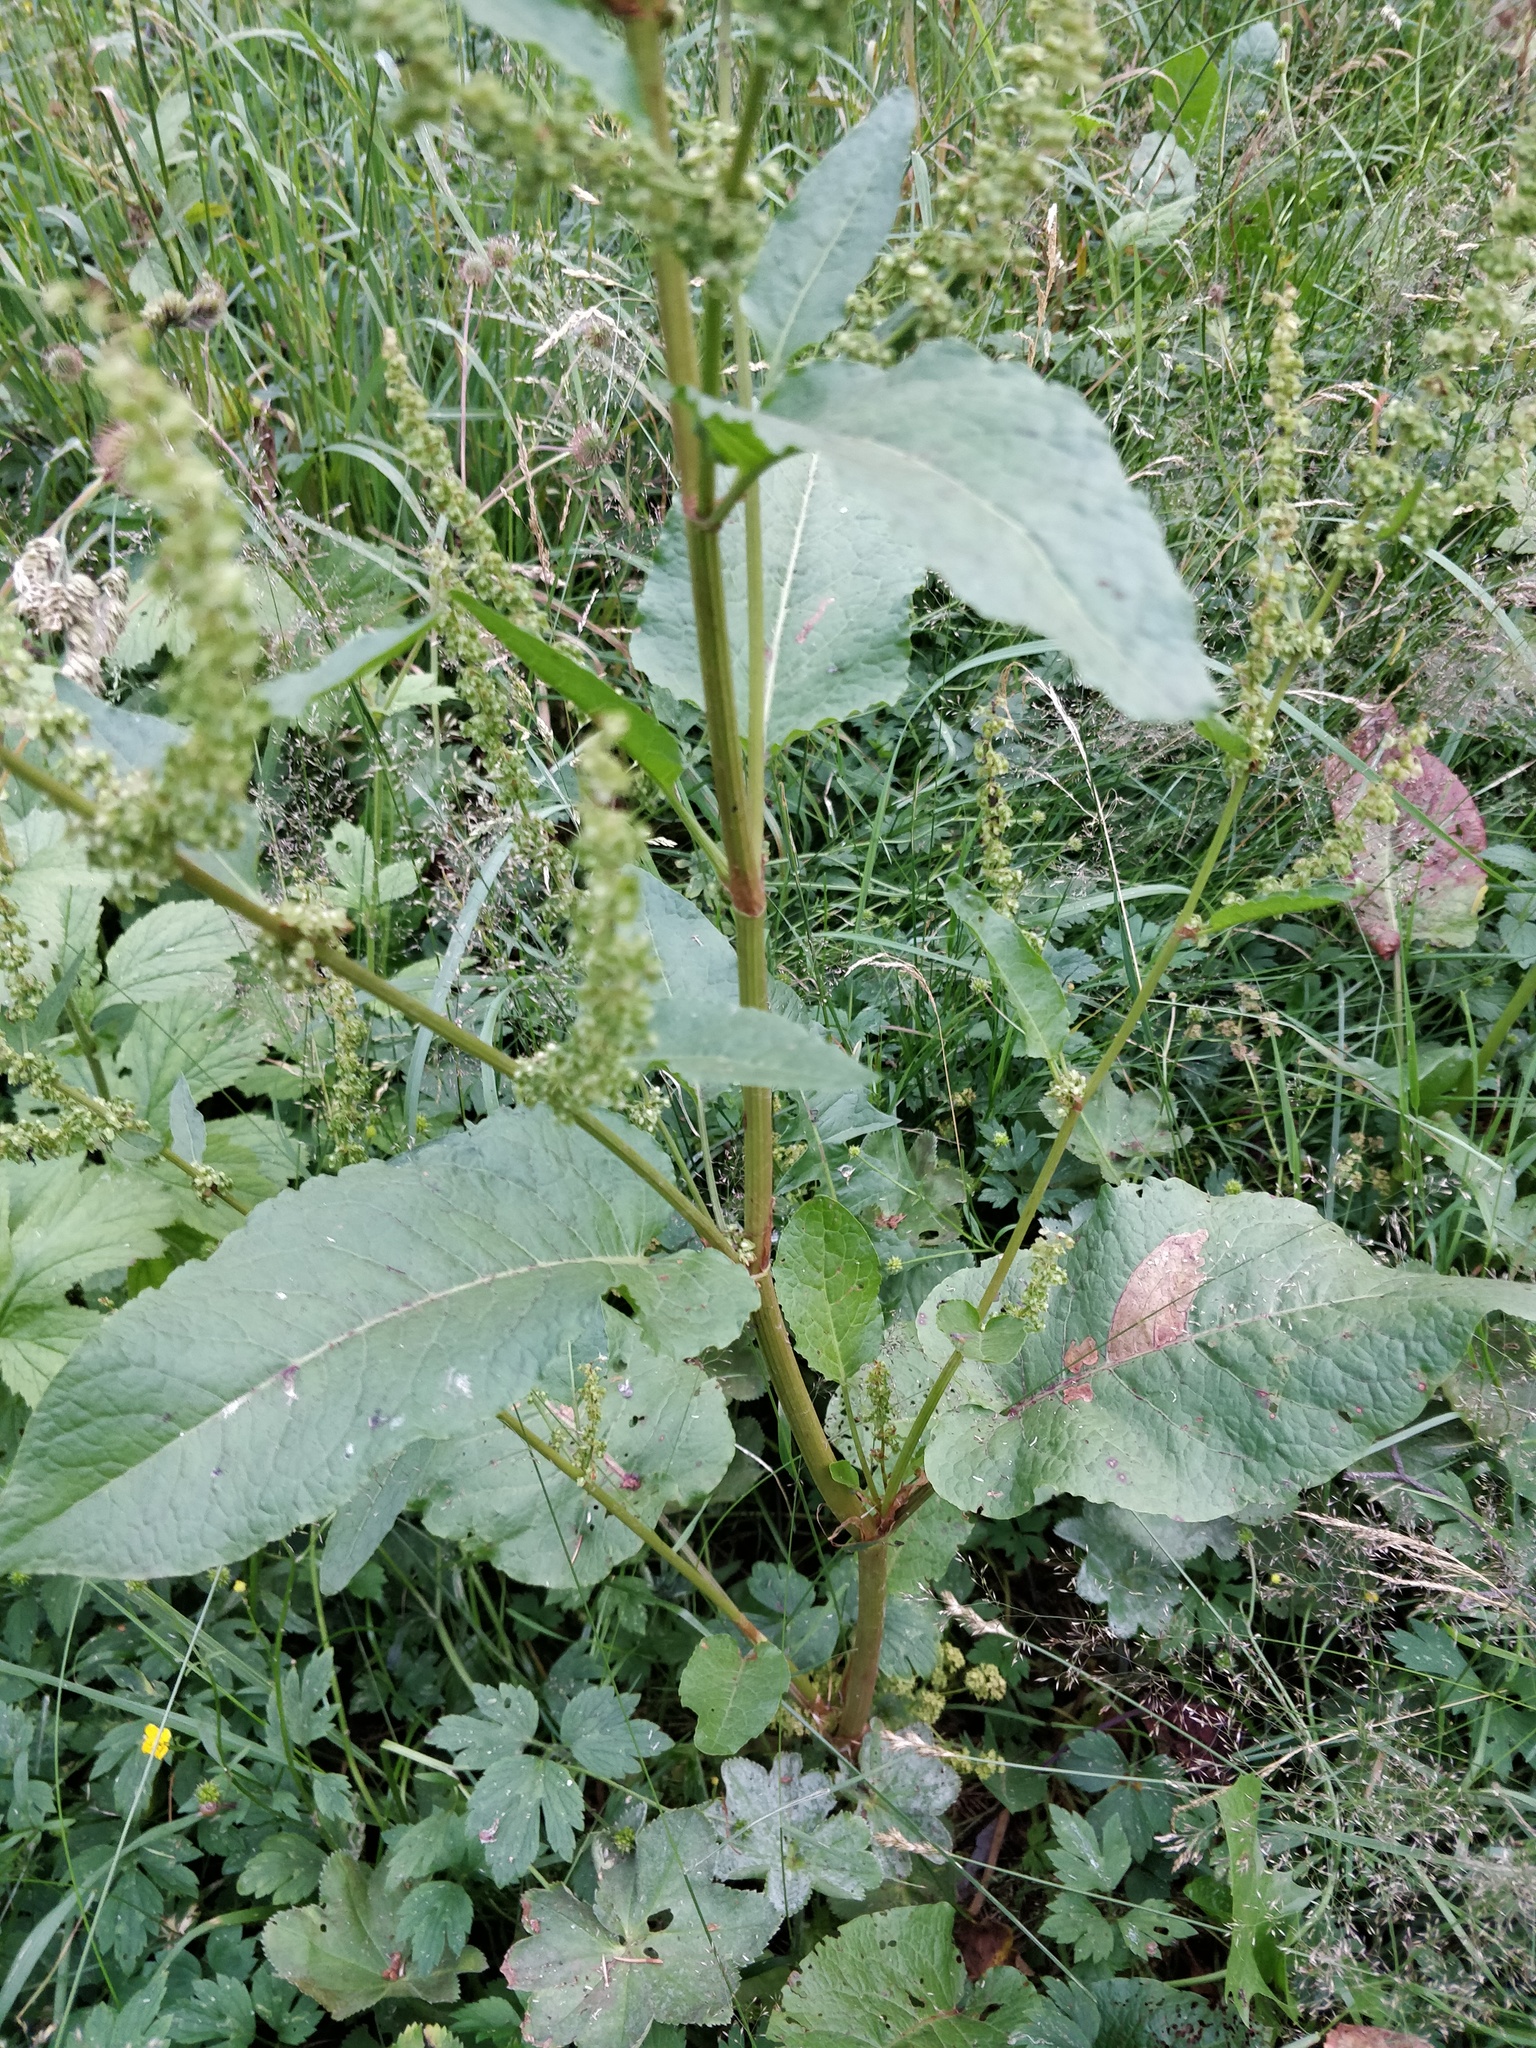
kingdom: Plantae
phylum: Tracheophyta
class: Magnoliopsida
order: Caryophyllales
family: Polygonaceae
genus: Rumex
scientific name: Rumex obtusifolius
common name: Bitter dock
